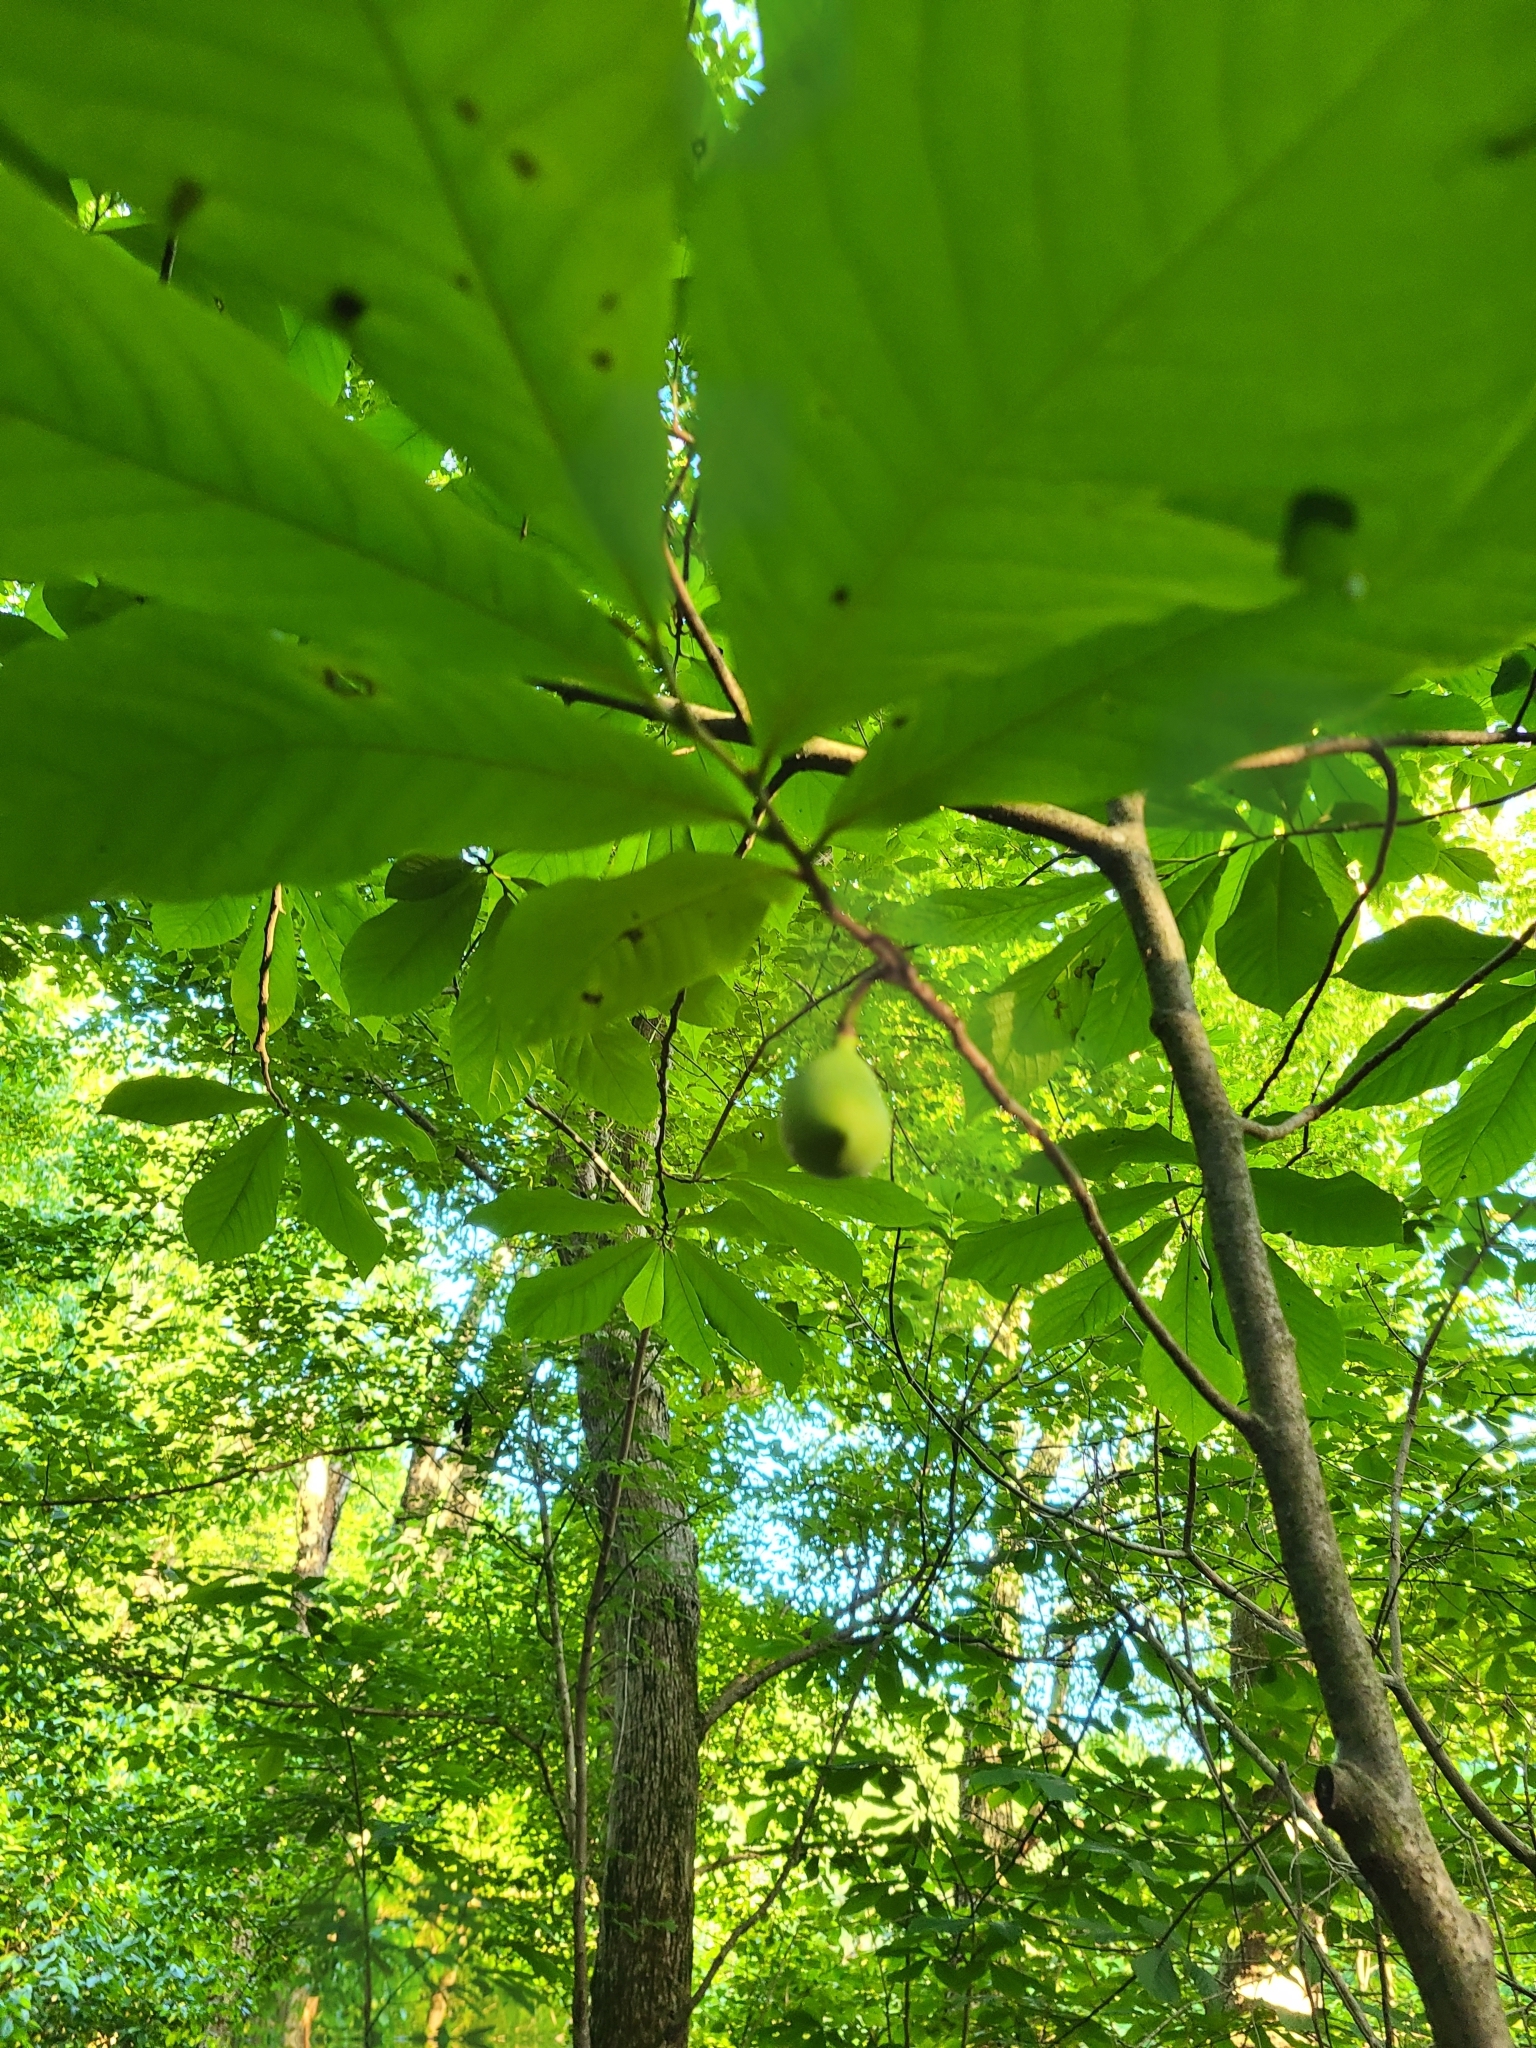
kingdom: Plantae
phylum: Tracheophyta
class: Magnoliopsida
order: Magnoliales
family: Annonaceae
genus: Asimina
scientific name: Asimina triloba
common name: Dog-banana
